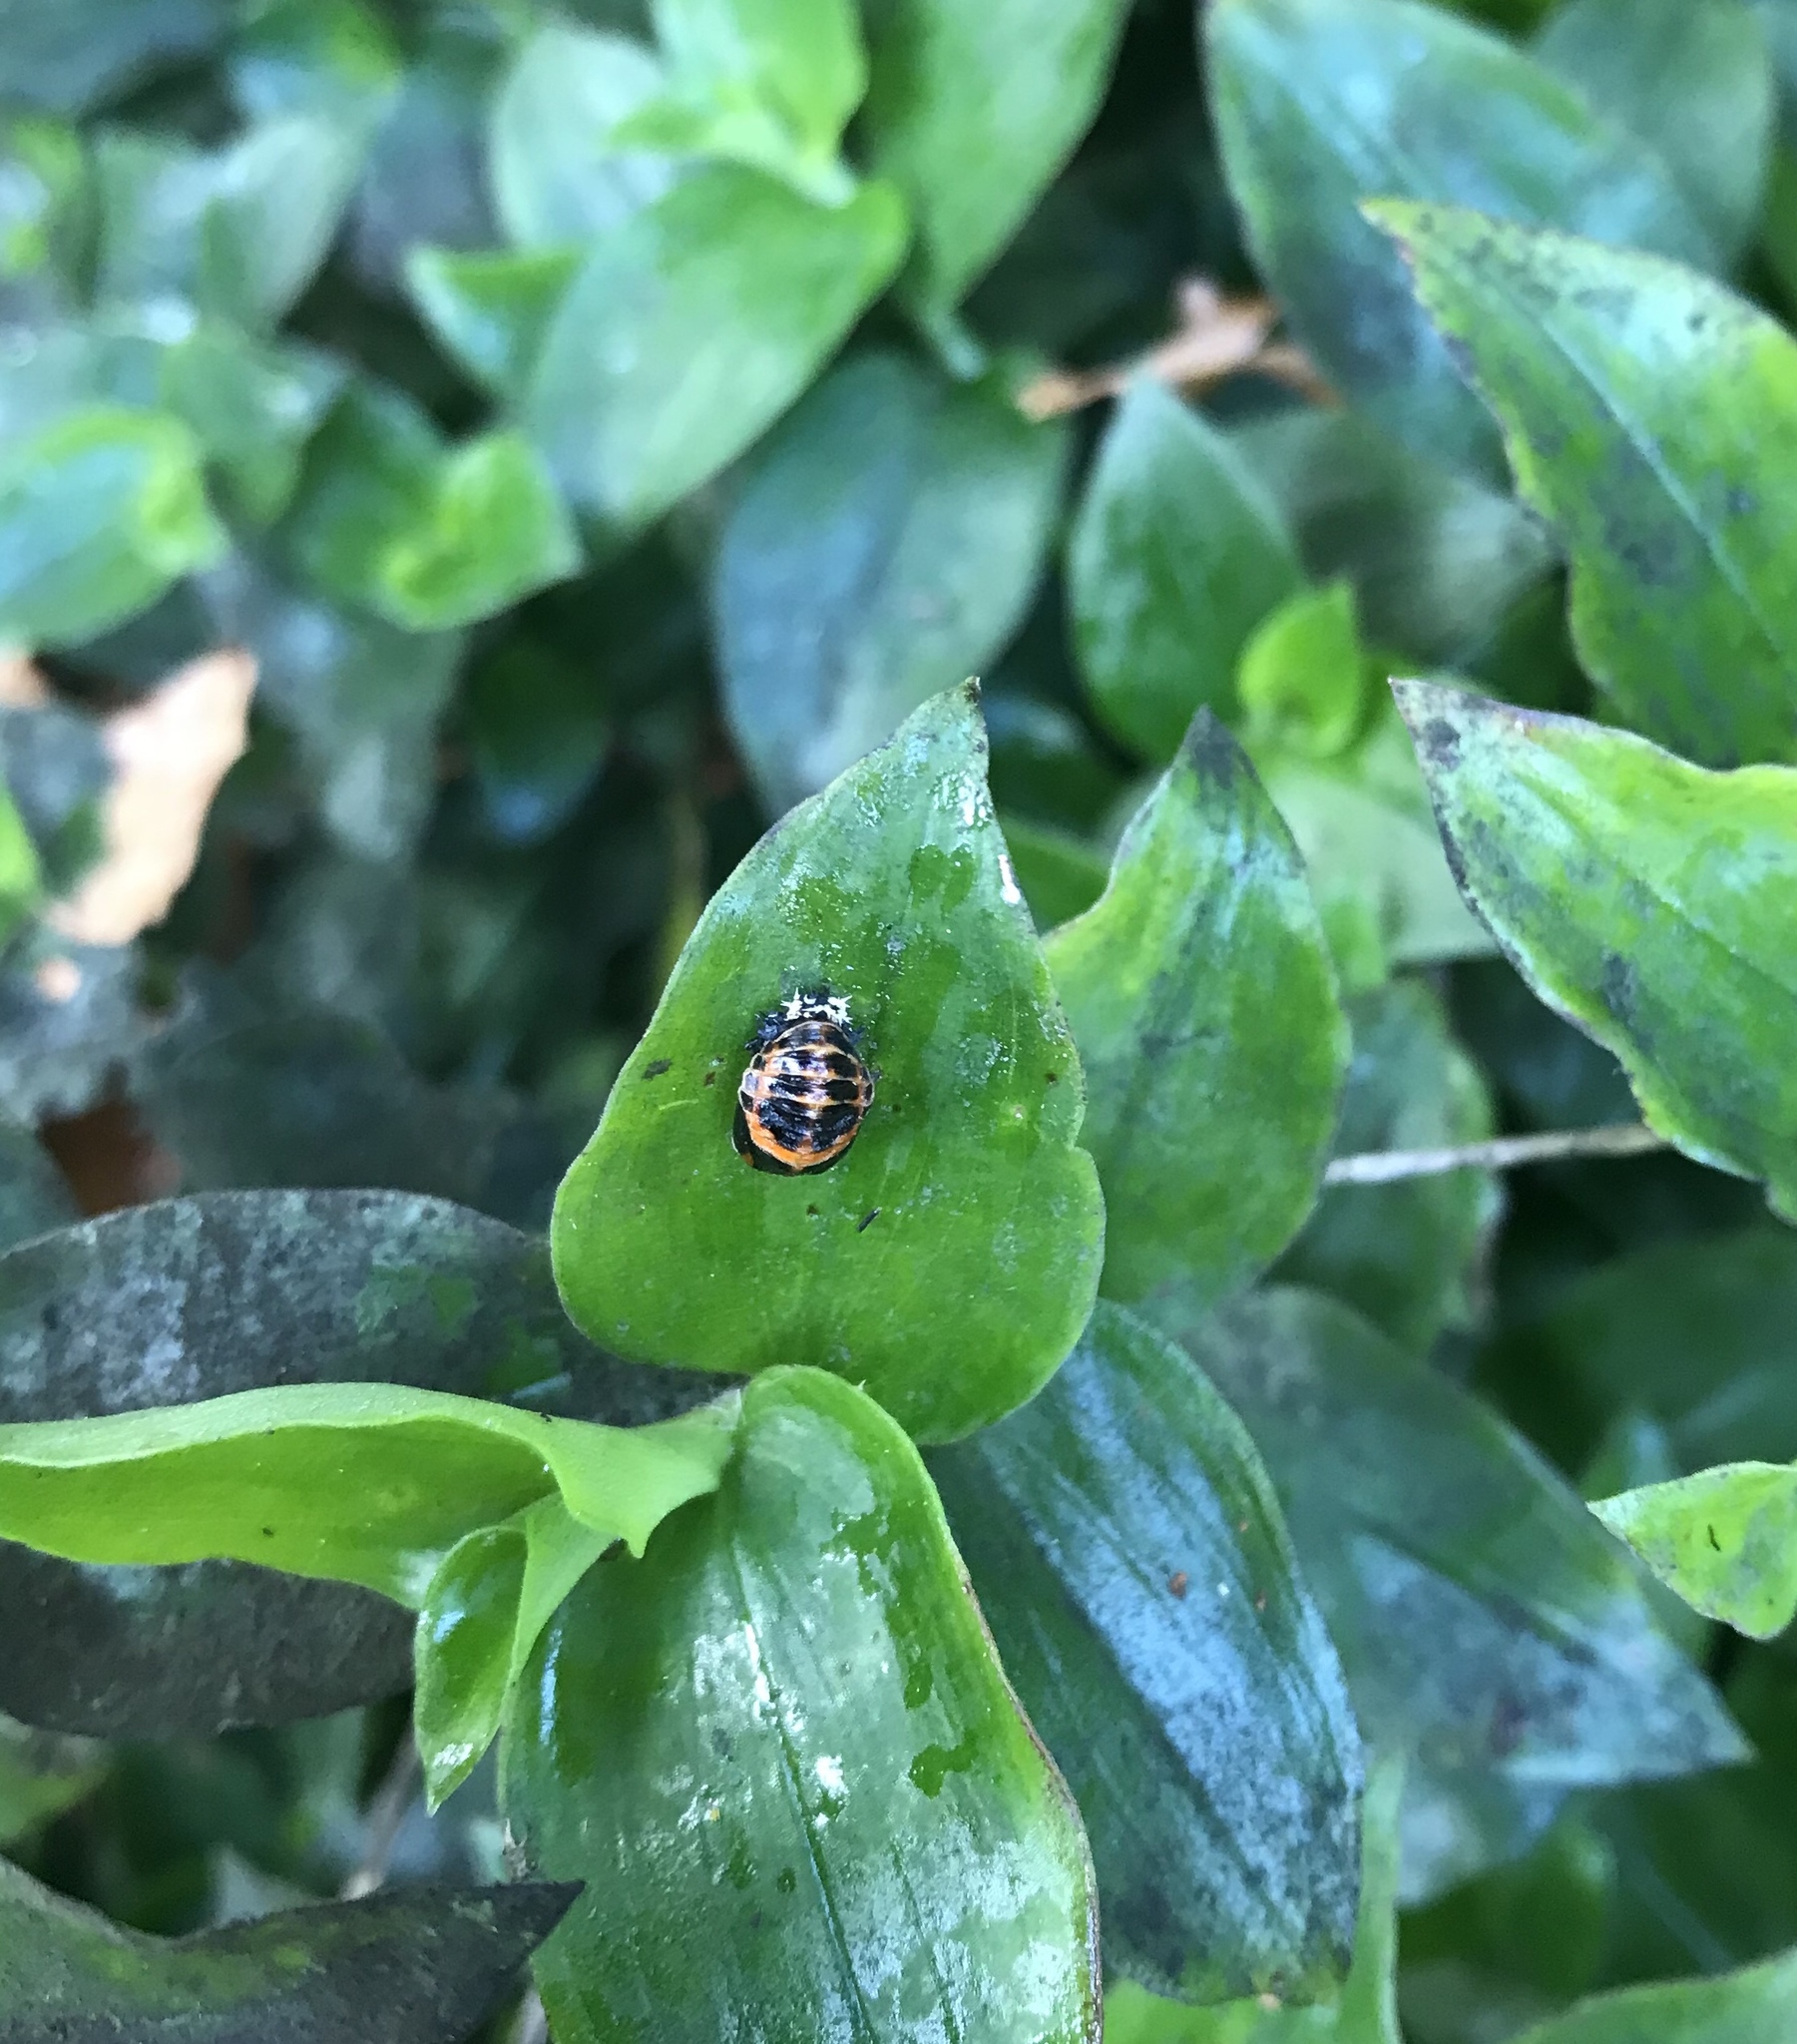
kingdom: Animalia
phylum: Arthropoda
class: Insecta
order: Coleoptera
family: Coccinellidae
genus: Harmonia
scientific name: Harmonia axyridis
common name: Harlequin ladybird
